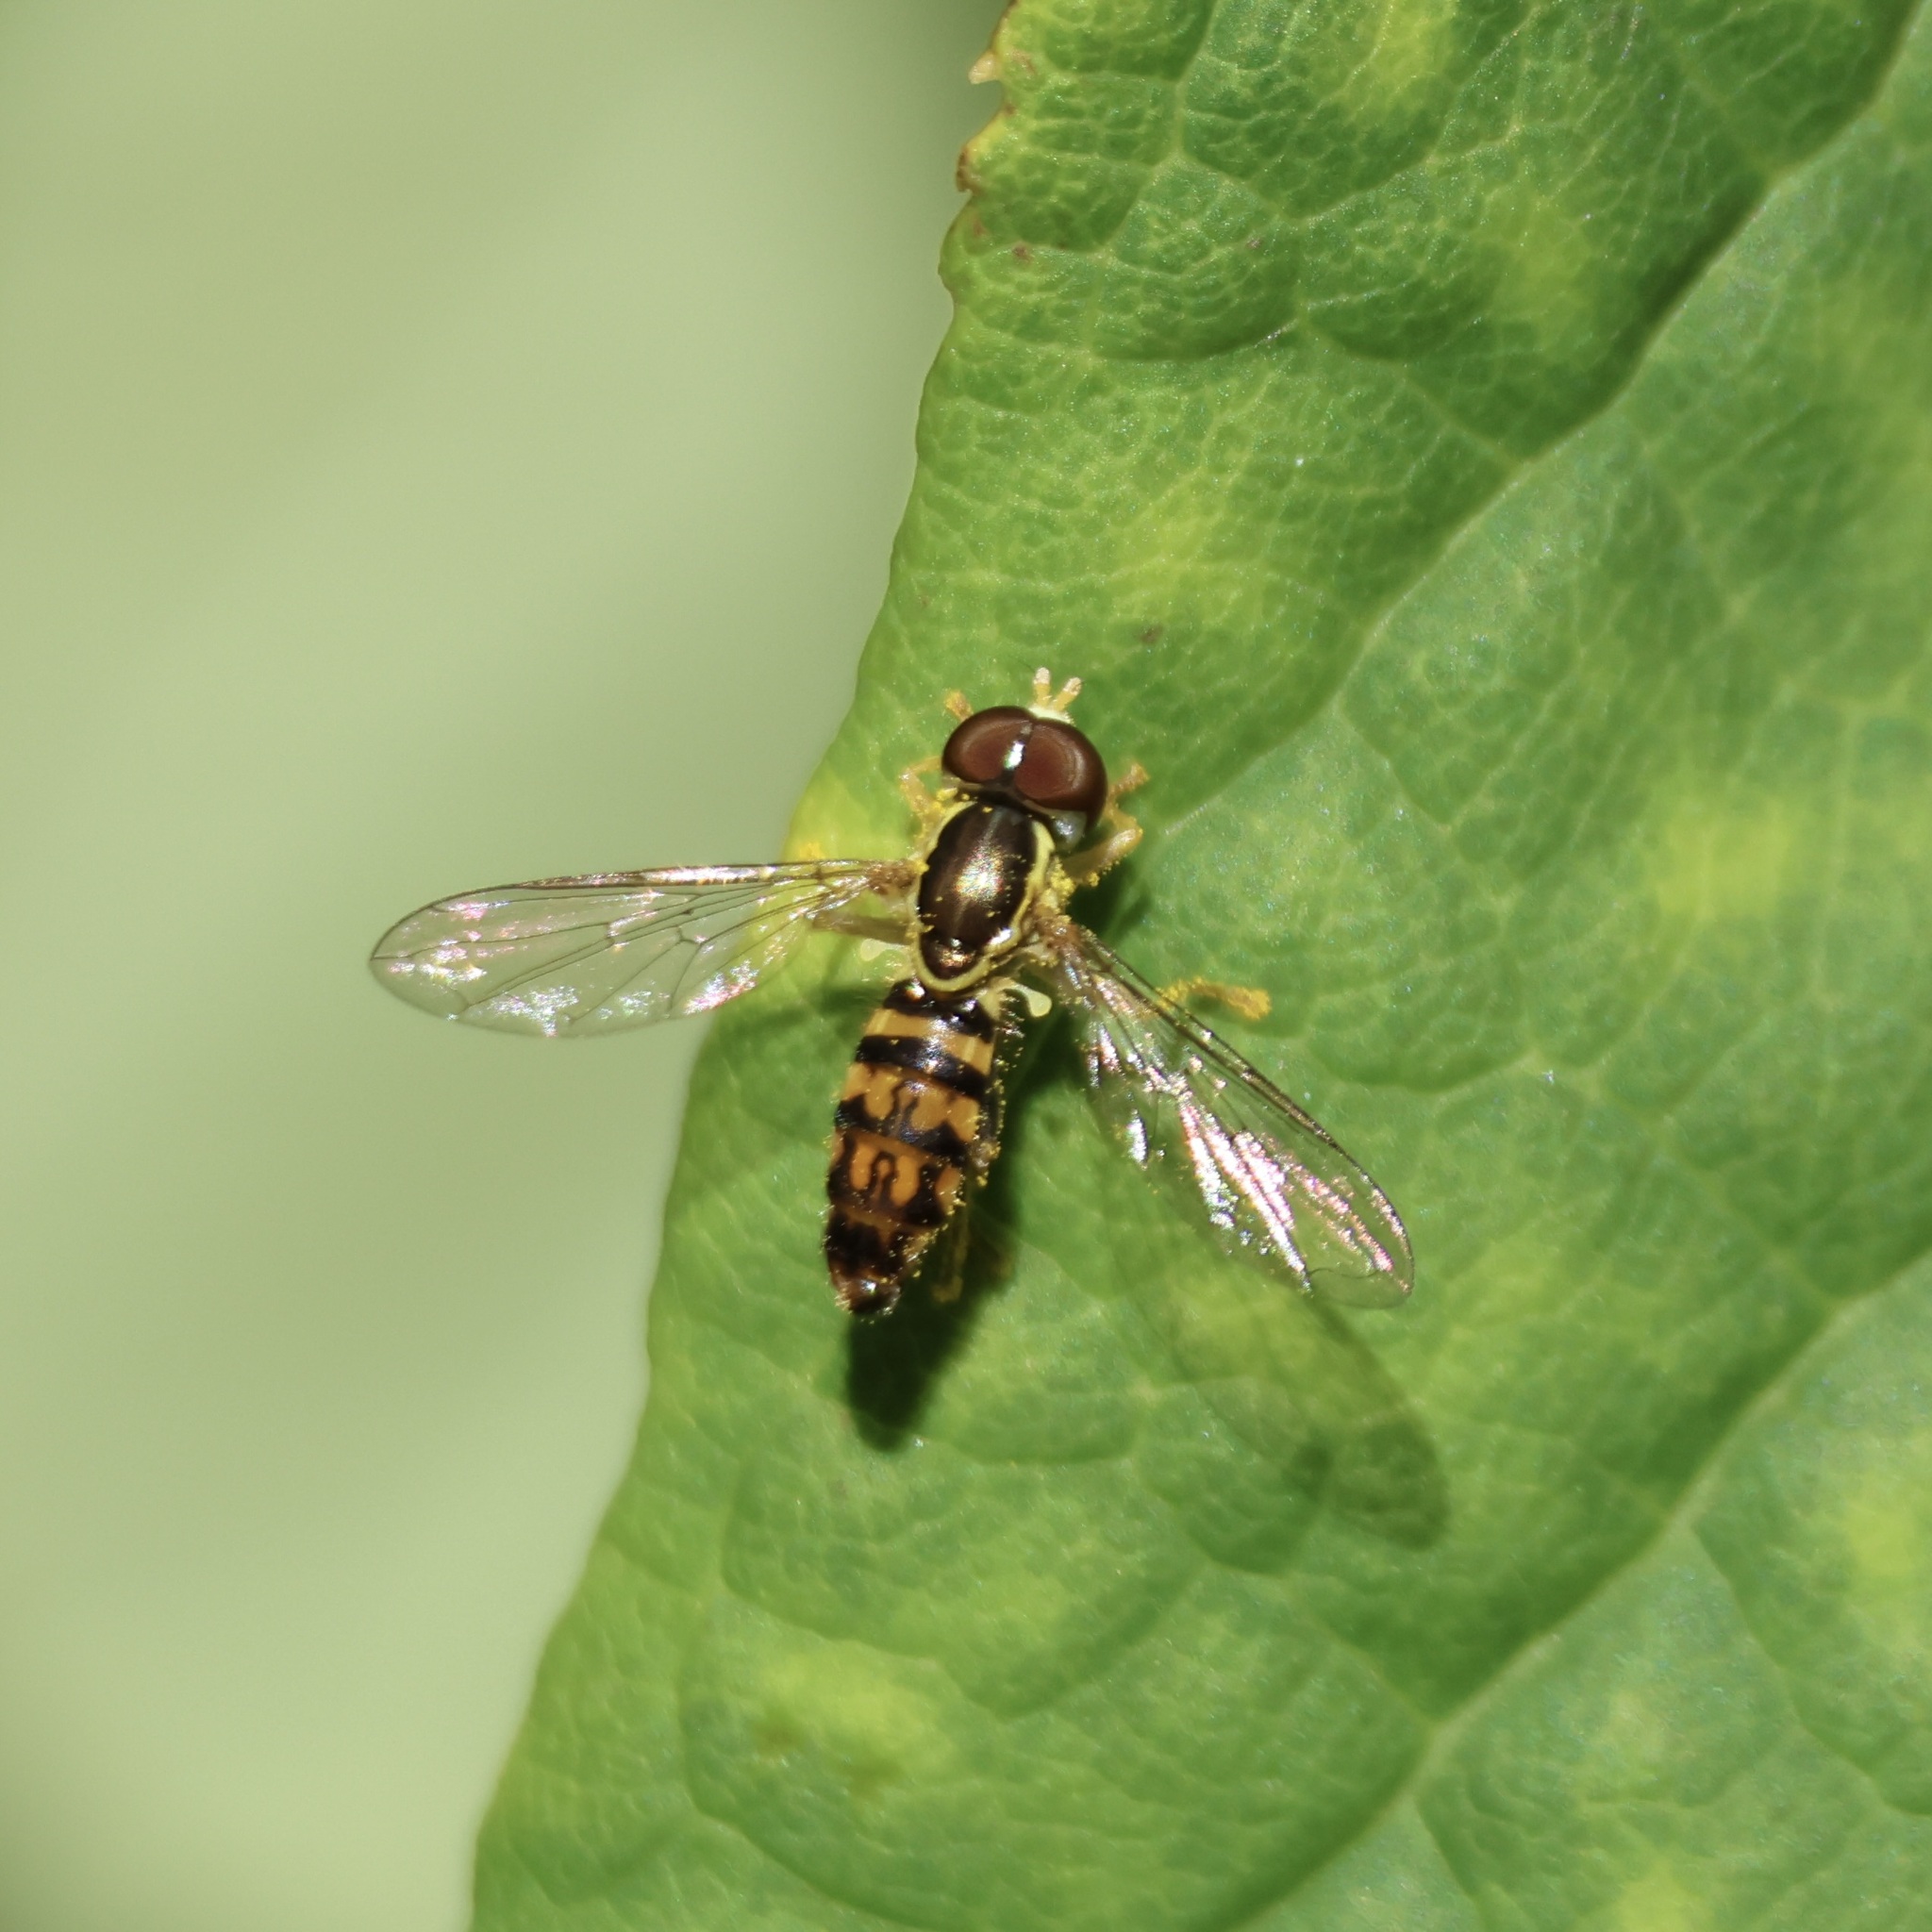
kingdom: Animalia
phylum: Arthropoda
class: Insecta
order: Diptera
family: Syrphidae
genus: Toxomerus
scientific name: Toxomerus geminatus
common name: Eastern calligrapher
